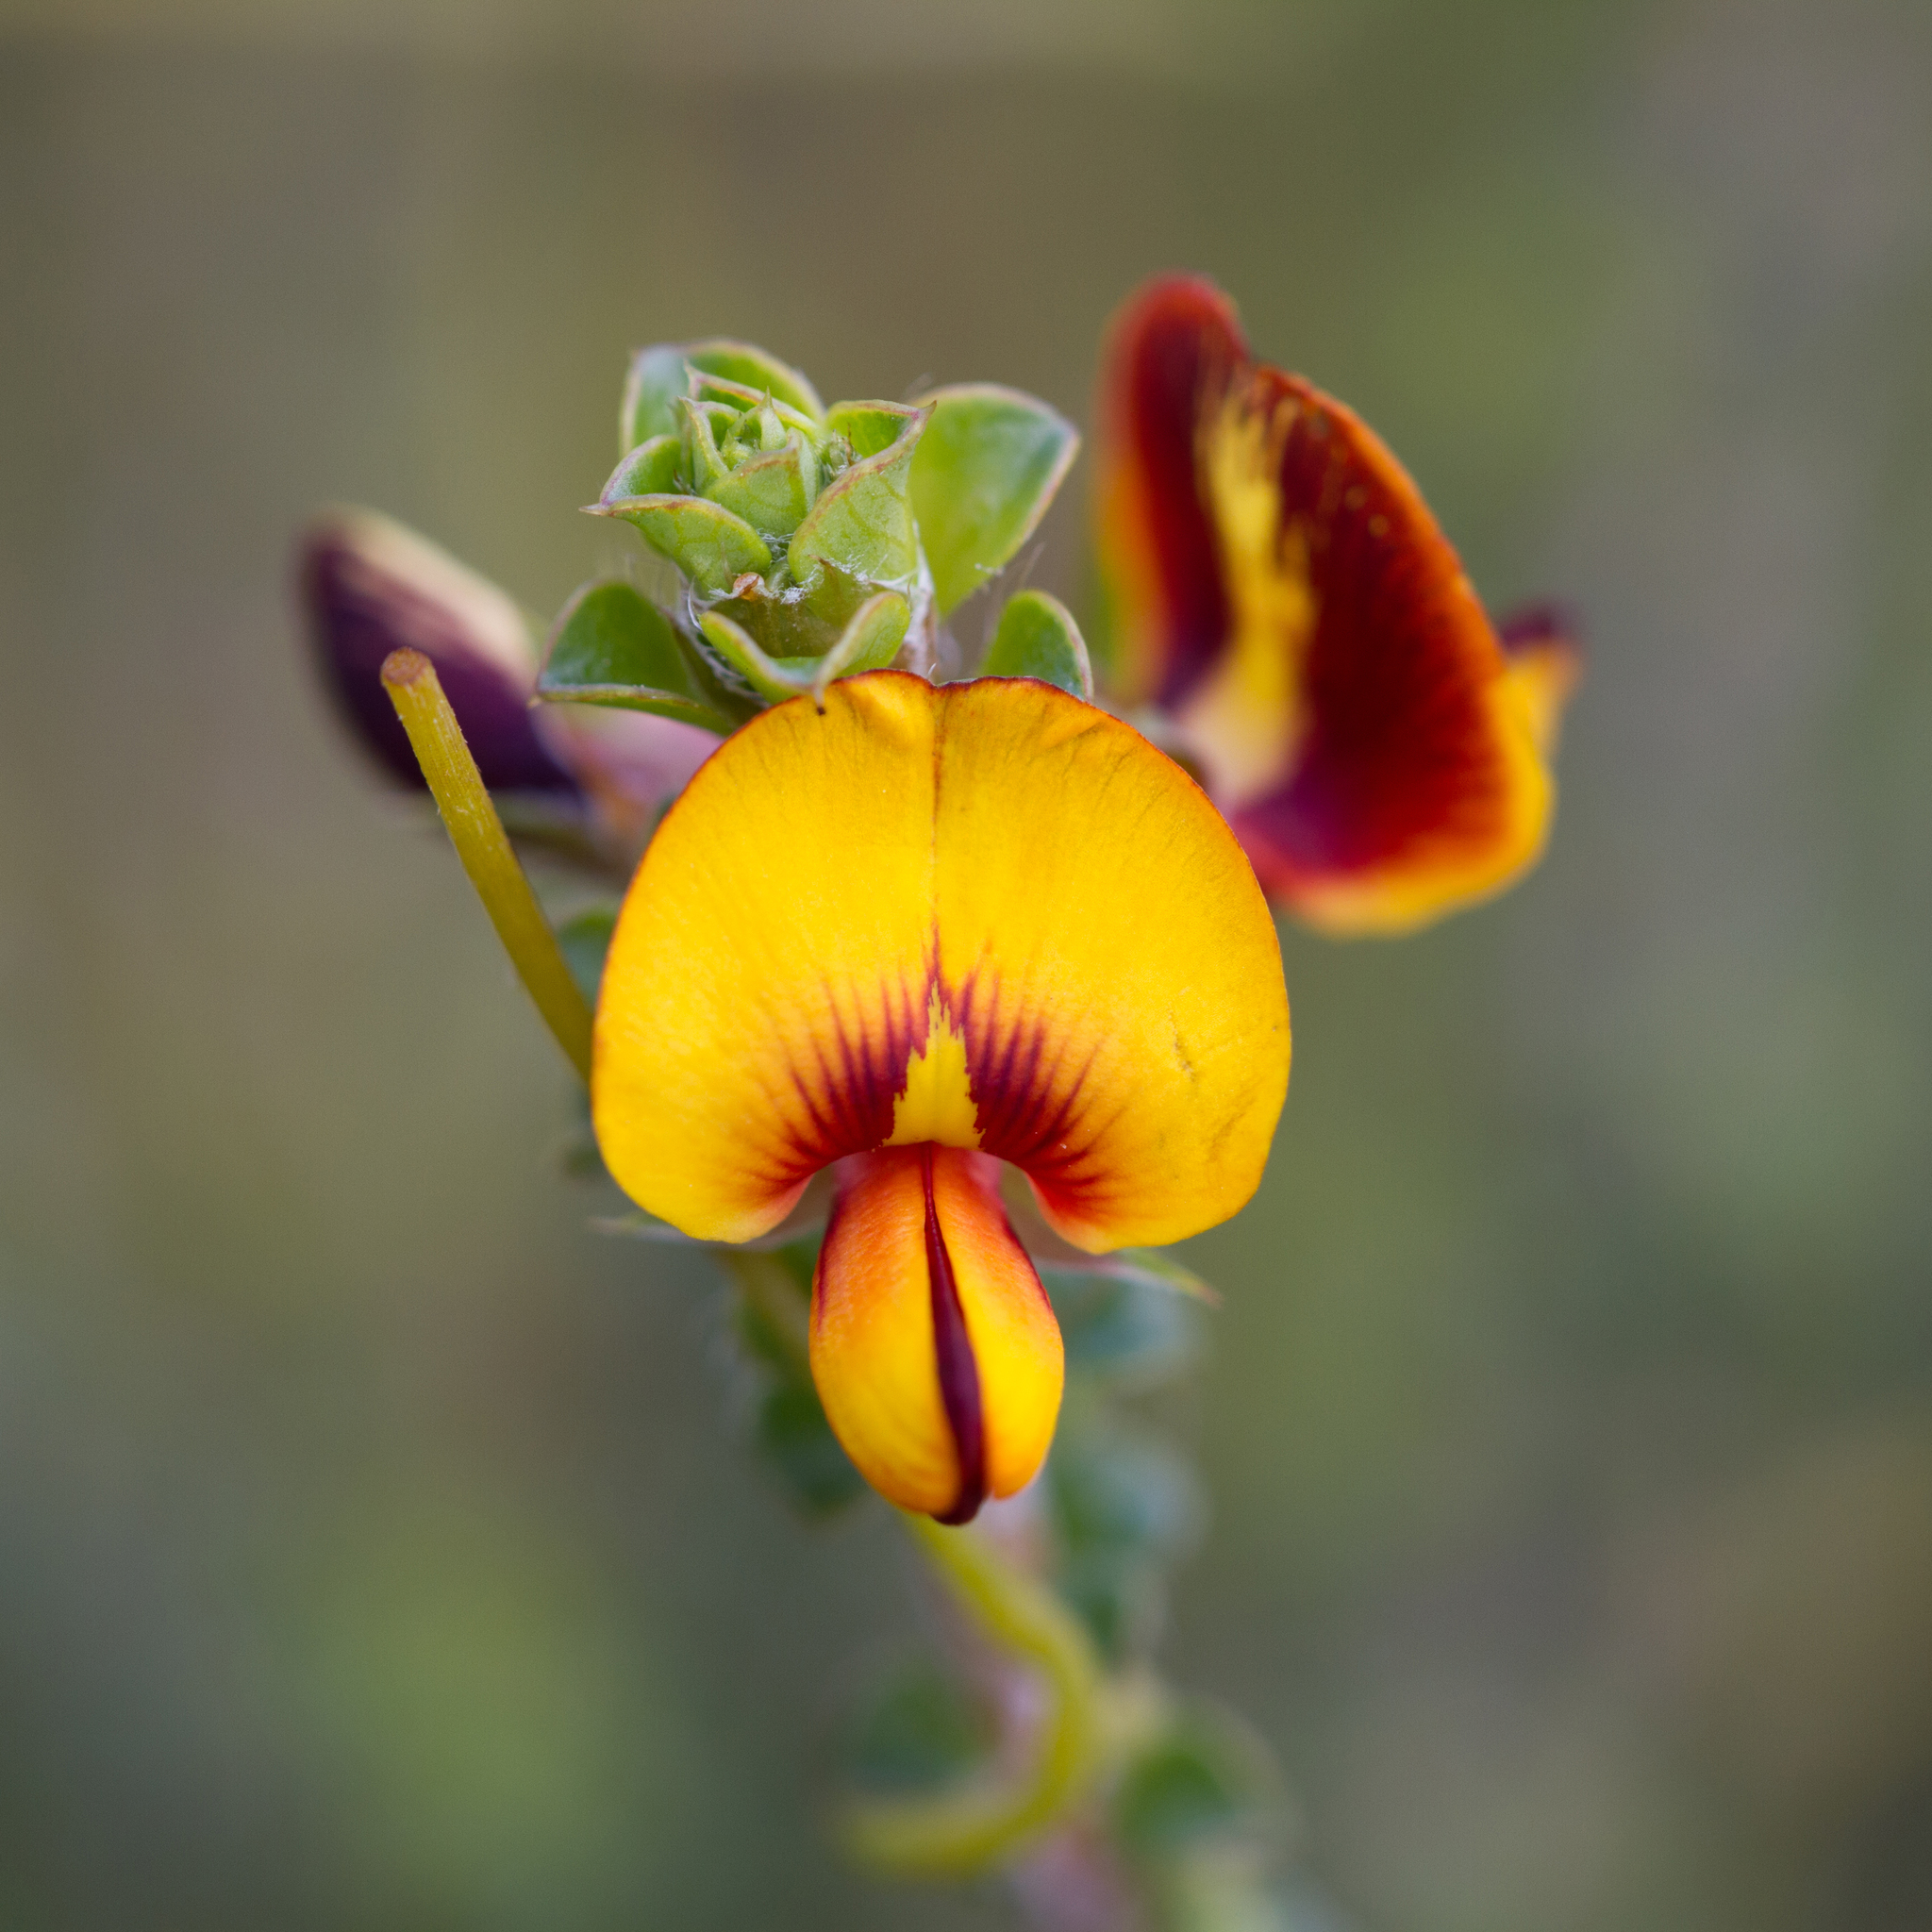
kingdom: Plantae
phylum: Tracheophyta
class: Magnoliopsida
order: Fabales
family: Fabaceae
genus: Pultenaea
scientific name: Pultenaea densifolia
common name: Dense-leaf bush-pea
